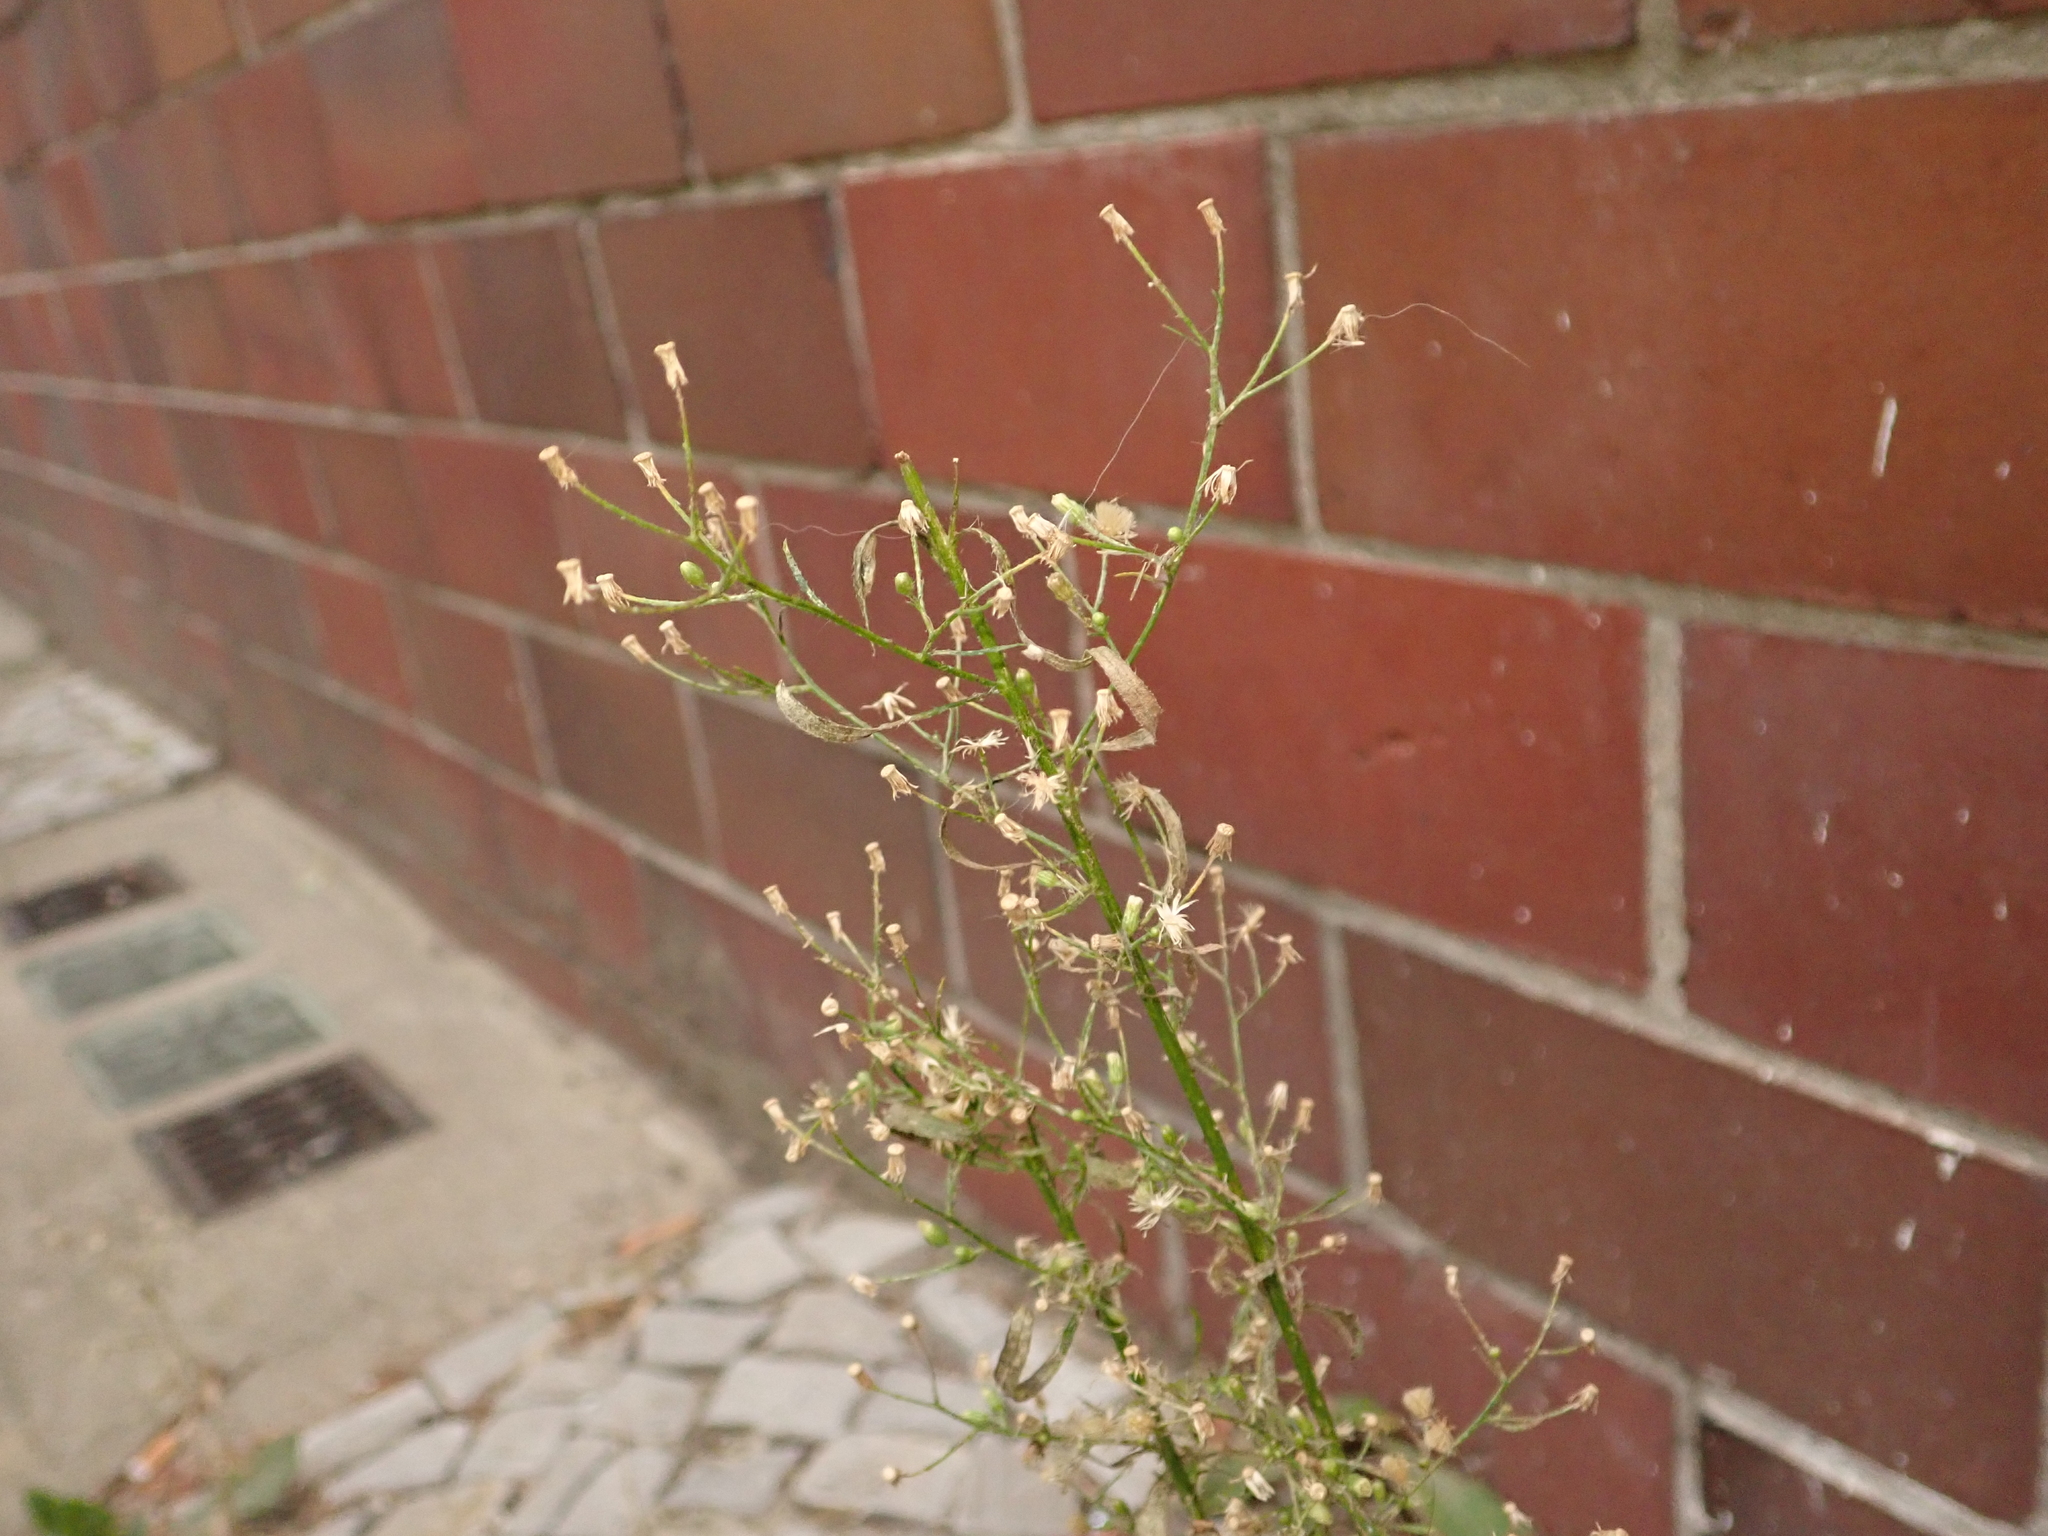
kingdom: Plantae
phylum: Tracheophyta
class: Magnoliopsida
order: Asterales
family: Asteraceae
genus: Erigeron
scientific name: Erigeron canadensis
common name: Canadian fleabane
